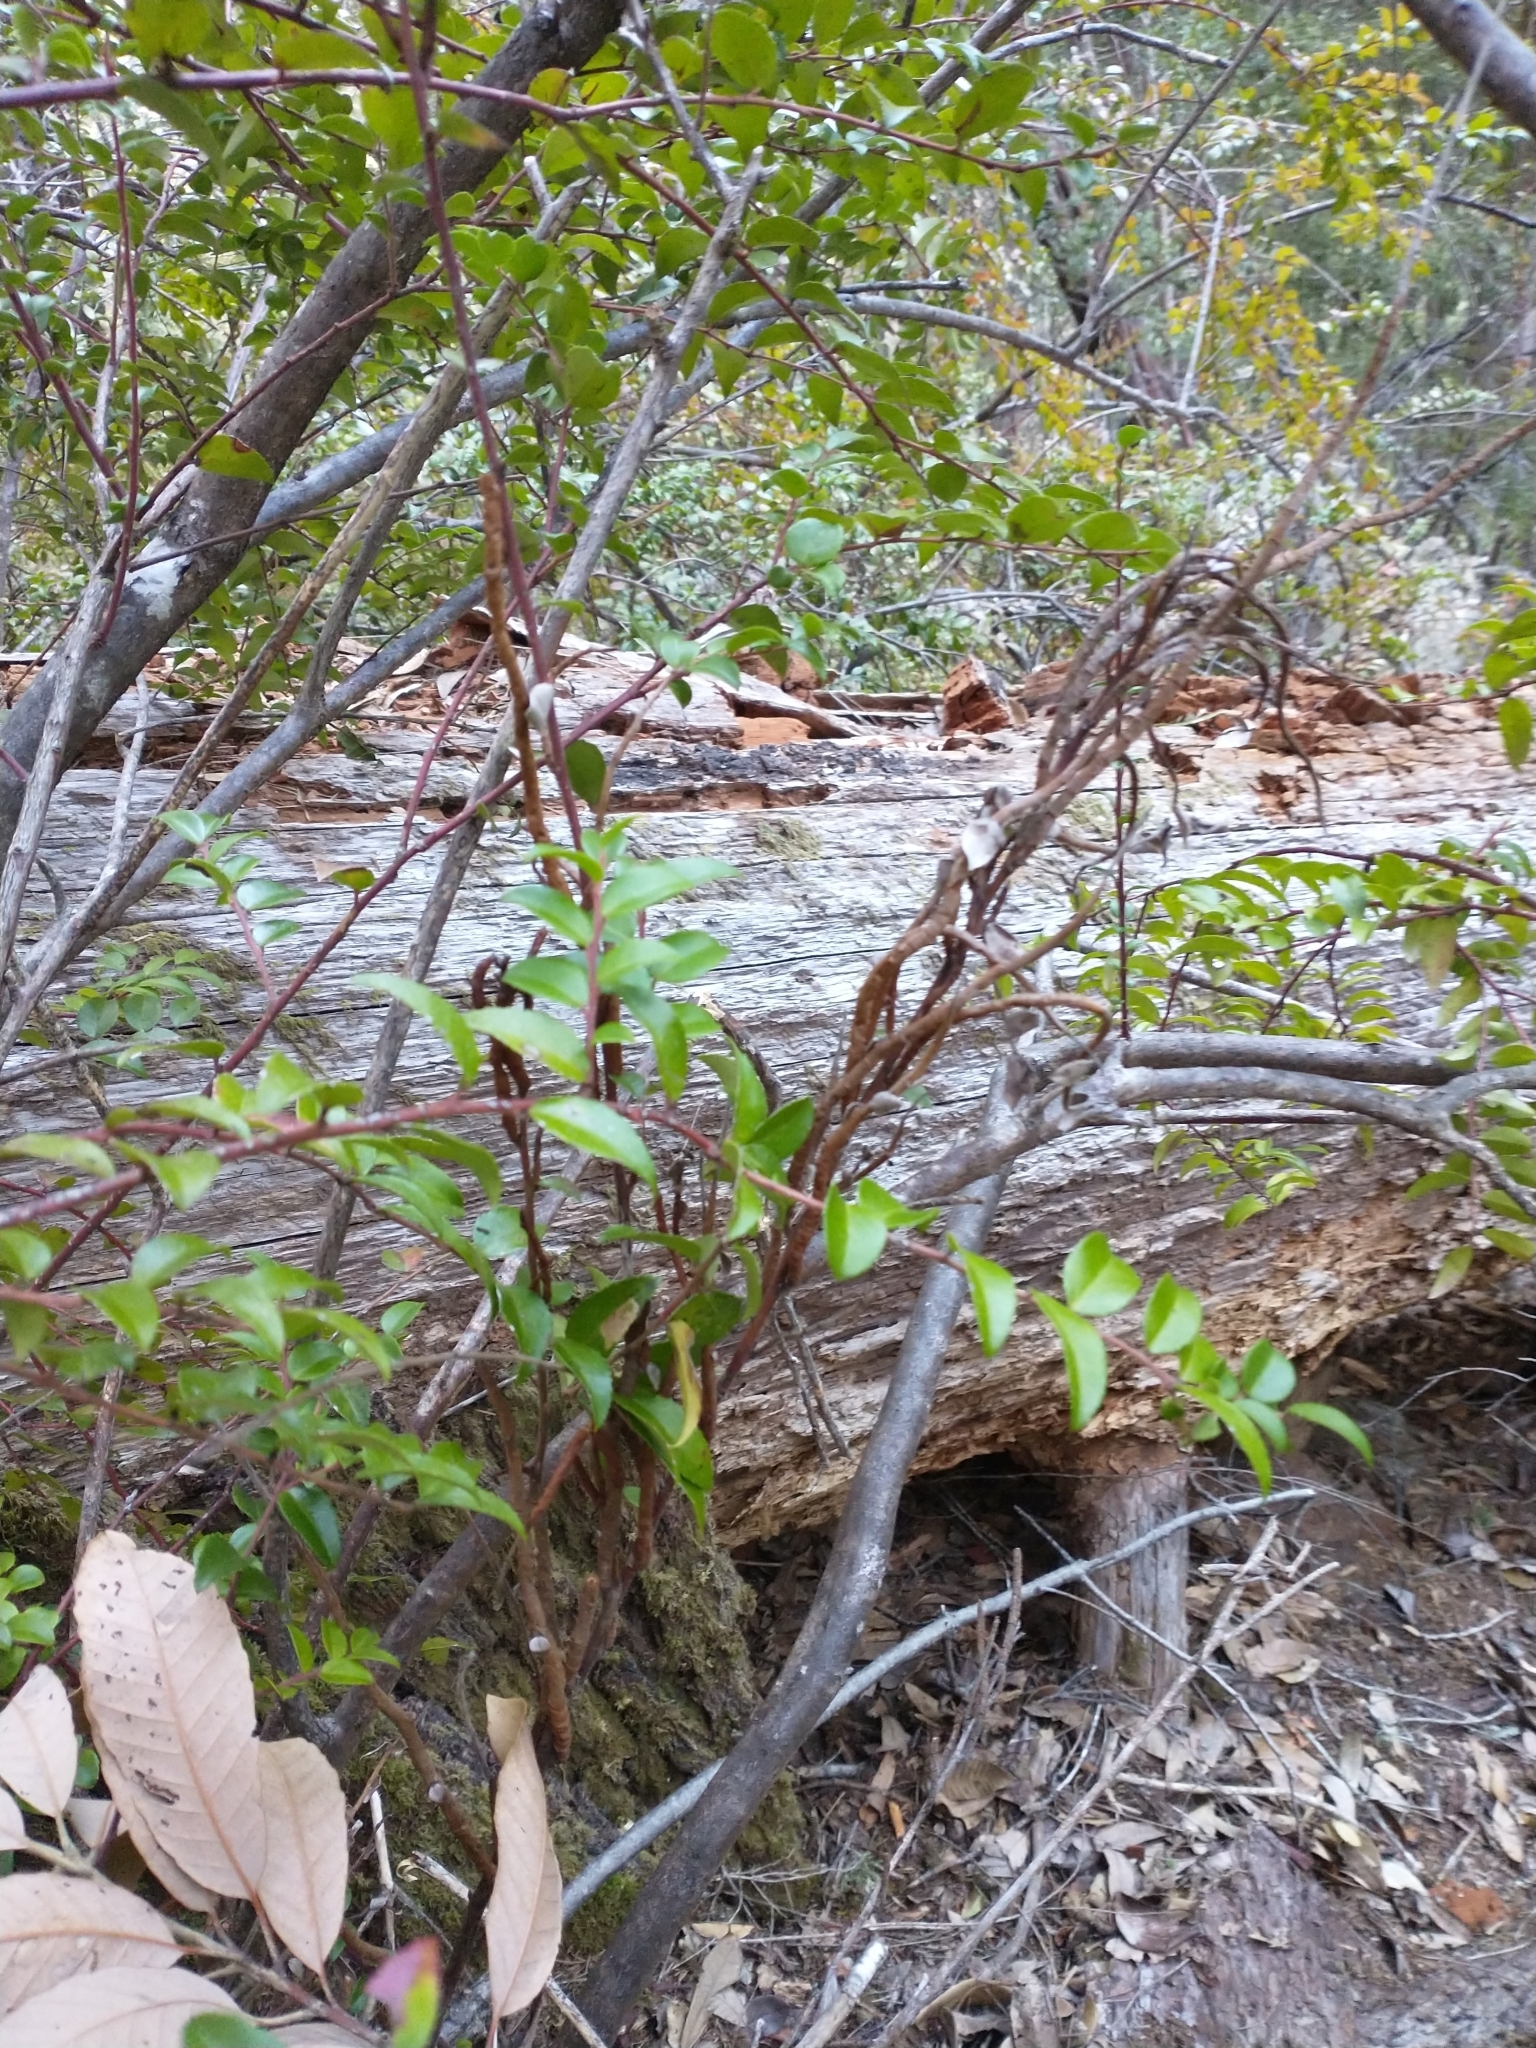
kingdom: Fungi
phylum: Basidiomycota
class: Pucciniomycetes
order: Pucciniales
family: Pucciniastraceae
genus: Calyptospora
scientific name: Calyptospora
